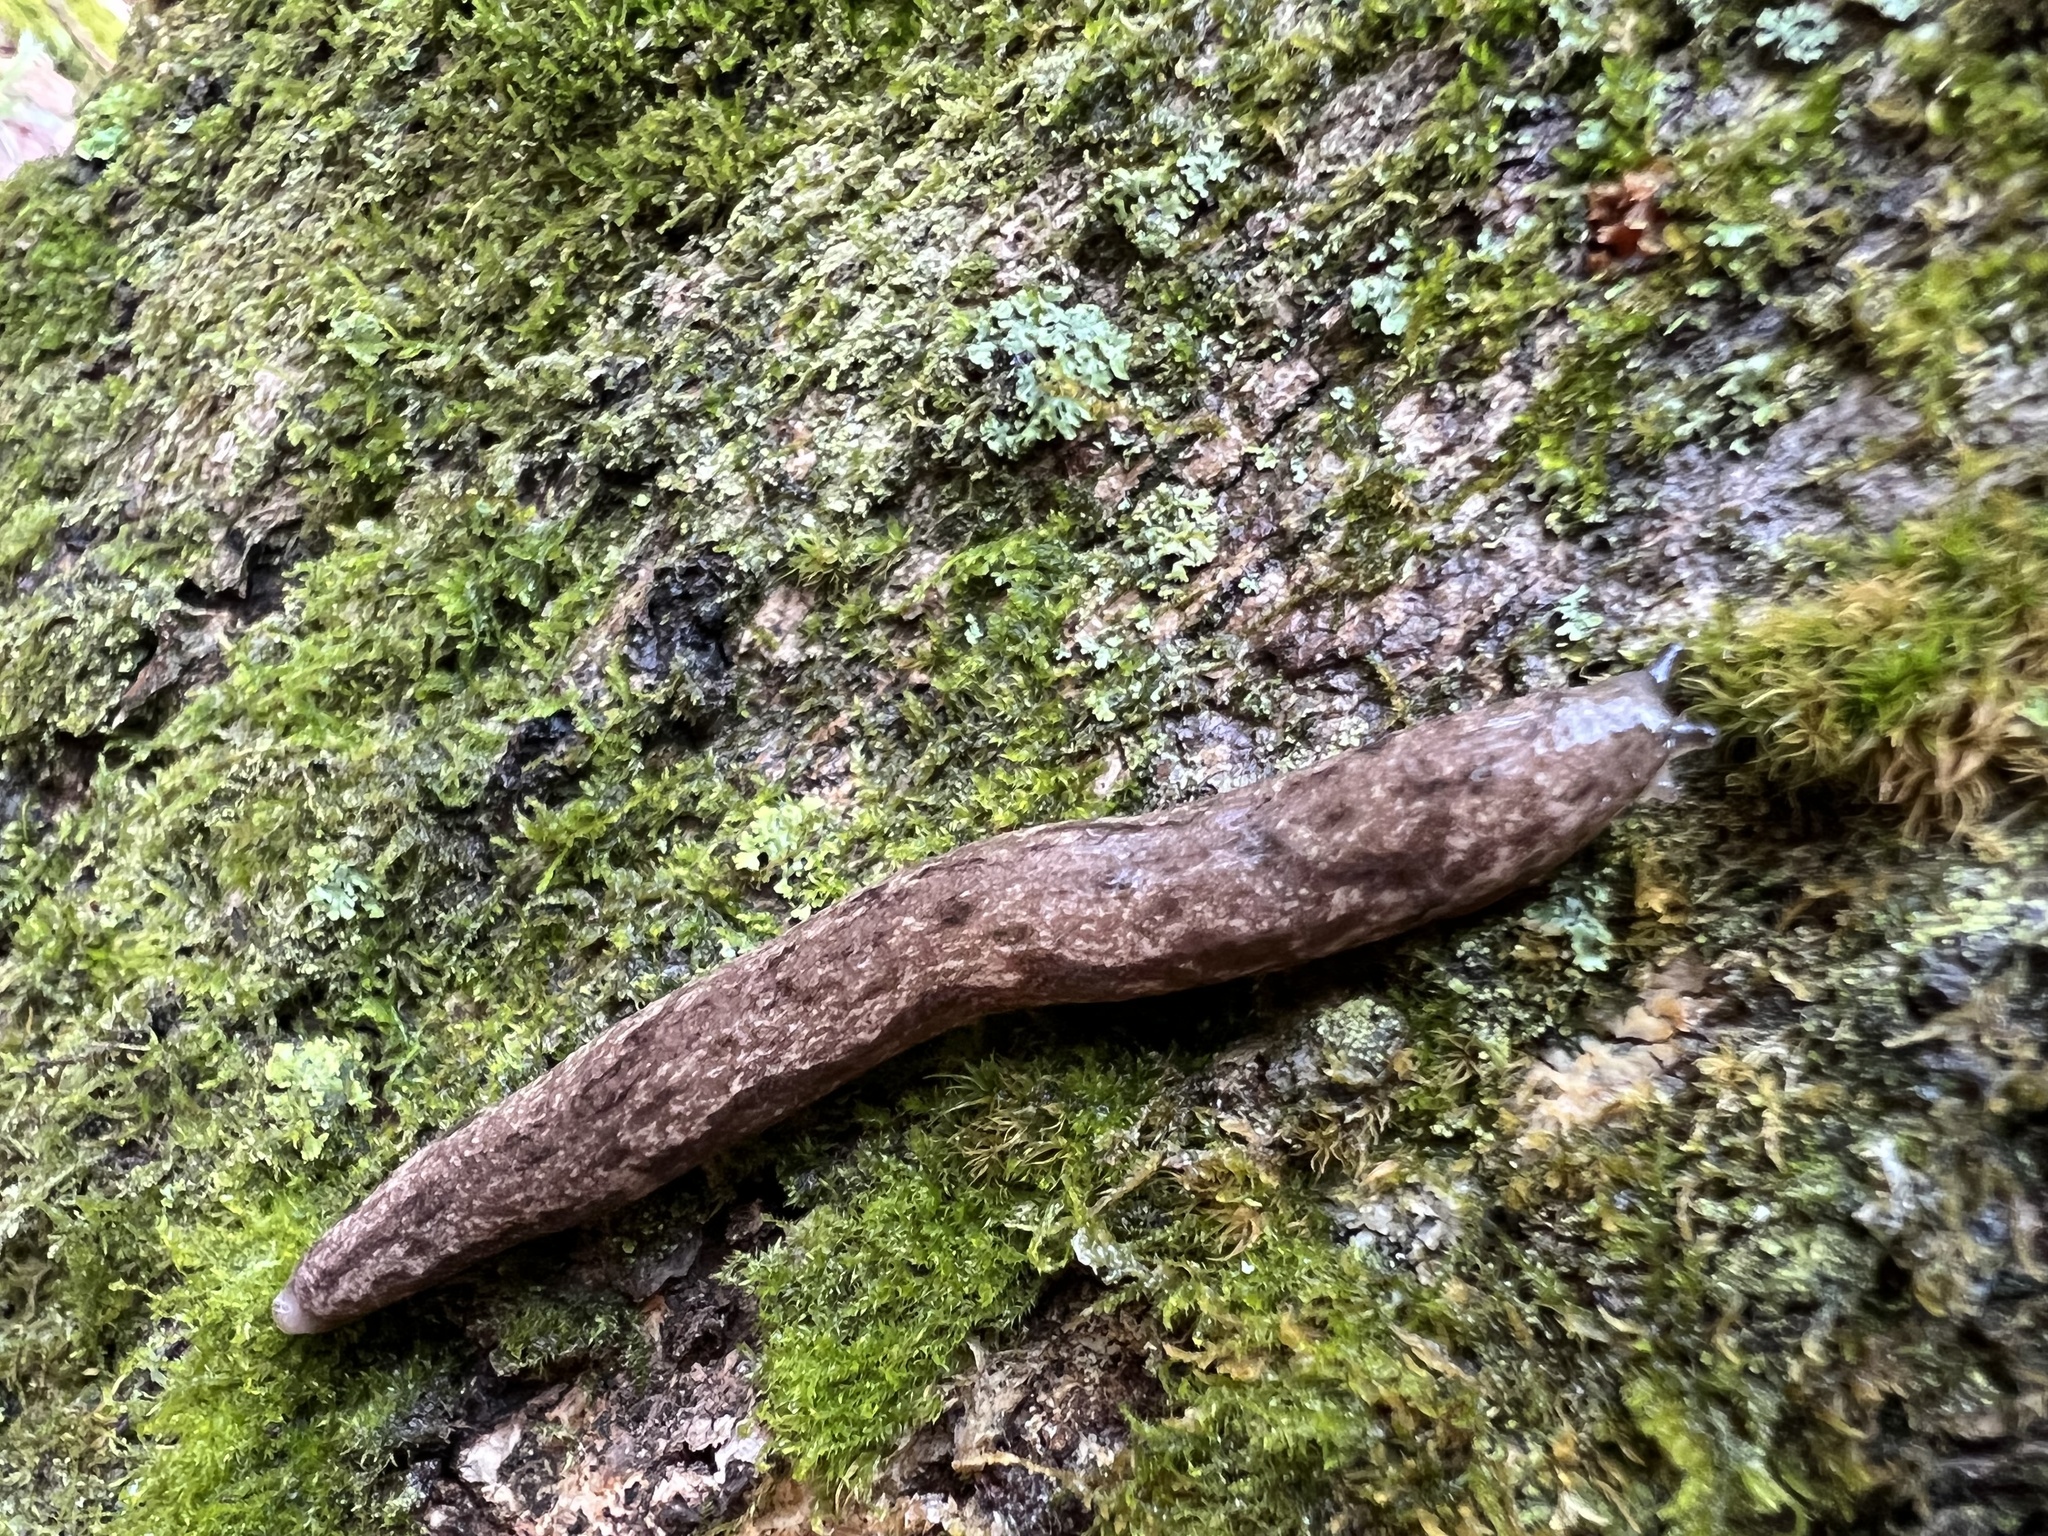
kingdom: Animalia
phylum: Mollusca
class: Gastropoda
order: Stylommatophora
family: Philomycidae
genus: Megapallifera
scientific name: Megapallifera mutabilis
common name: Changeable mantleslug
